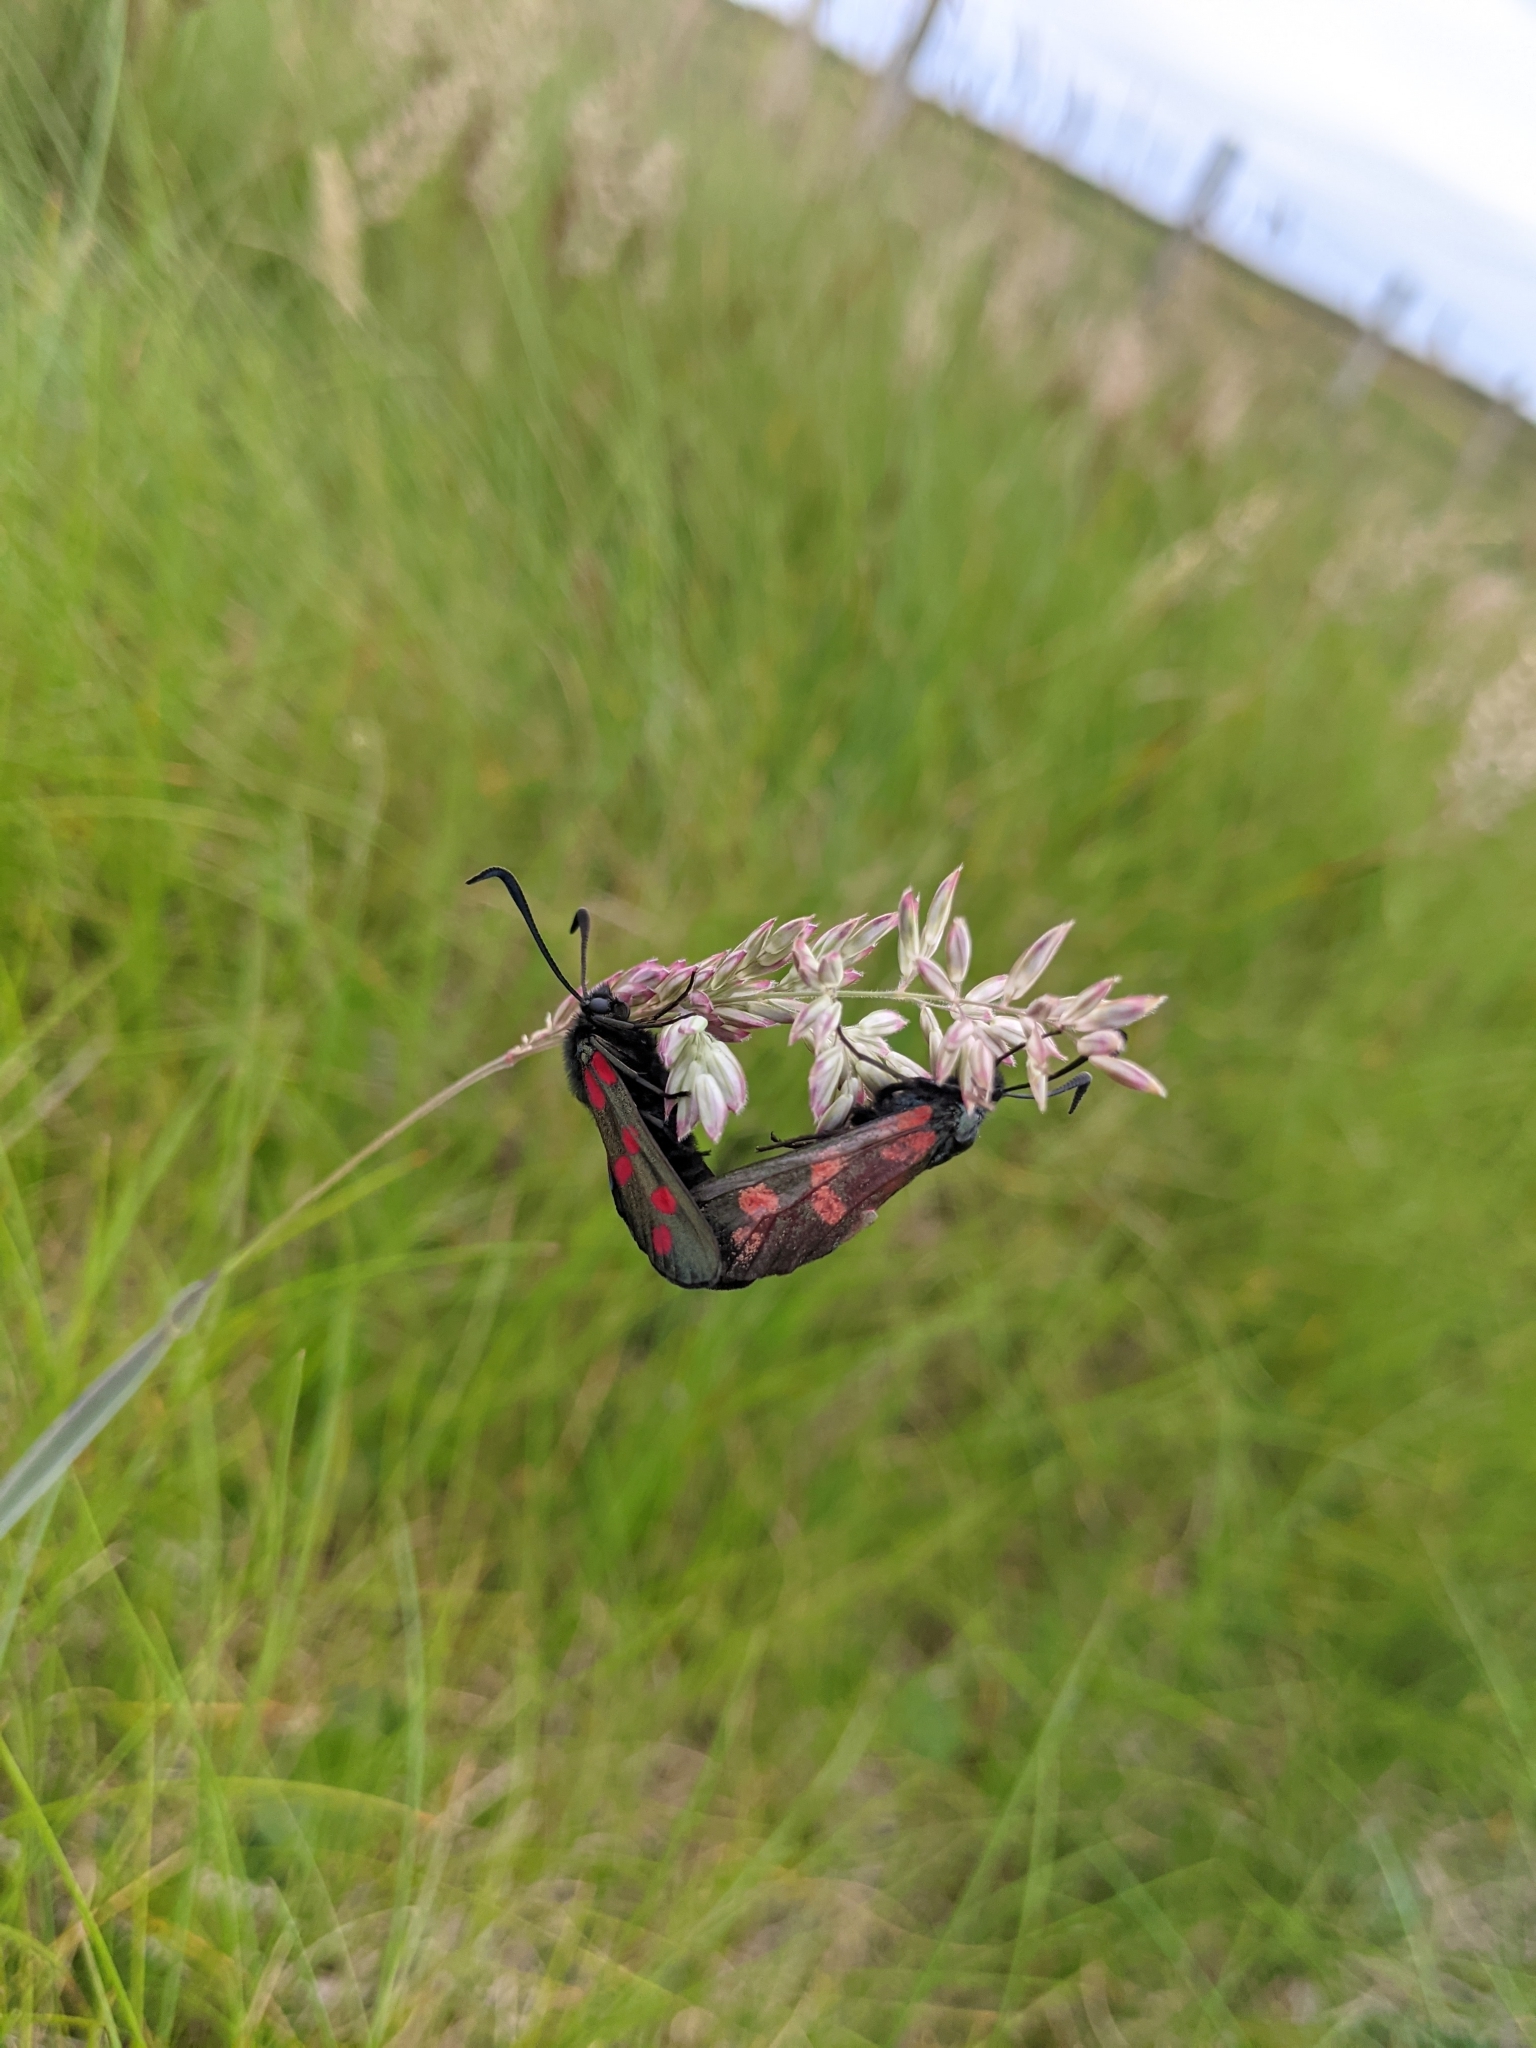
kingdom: Animalia
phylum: Arthropoda
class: Insecta
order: Lepidoptera
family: Zygaenidae
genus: Zygaena
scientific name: Zygaena filipendulae
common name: Six-spot burnet
